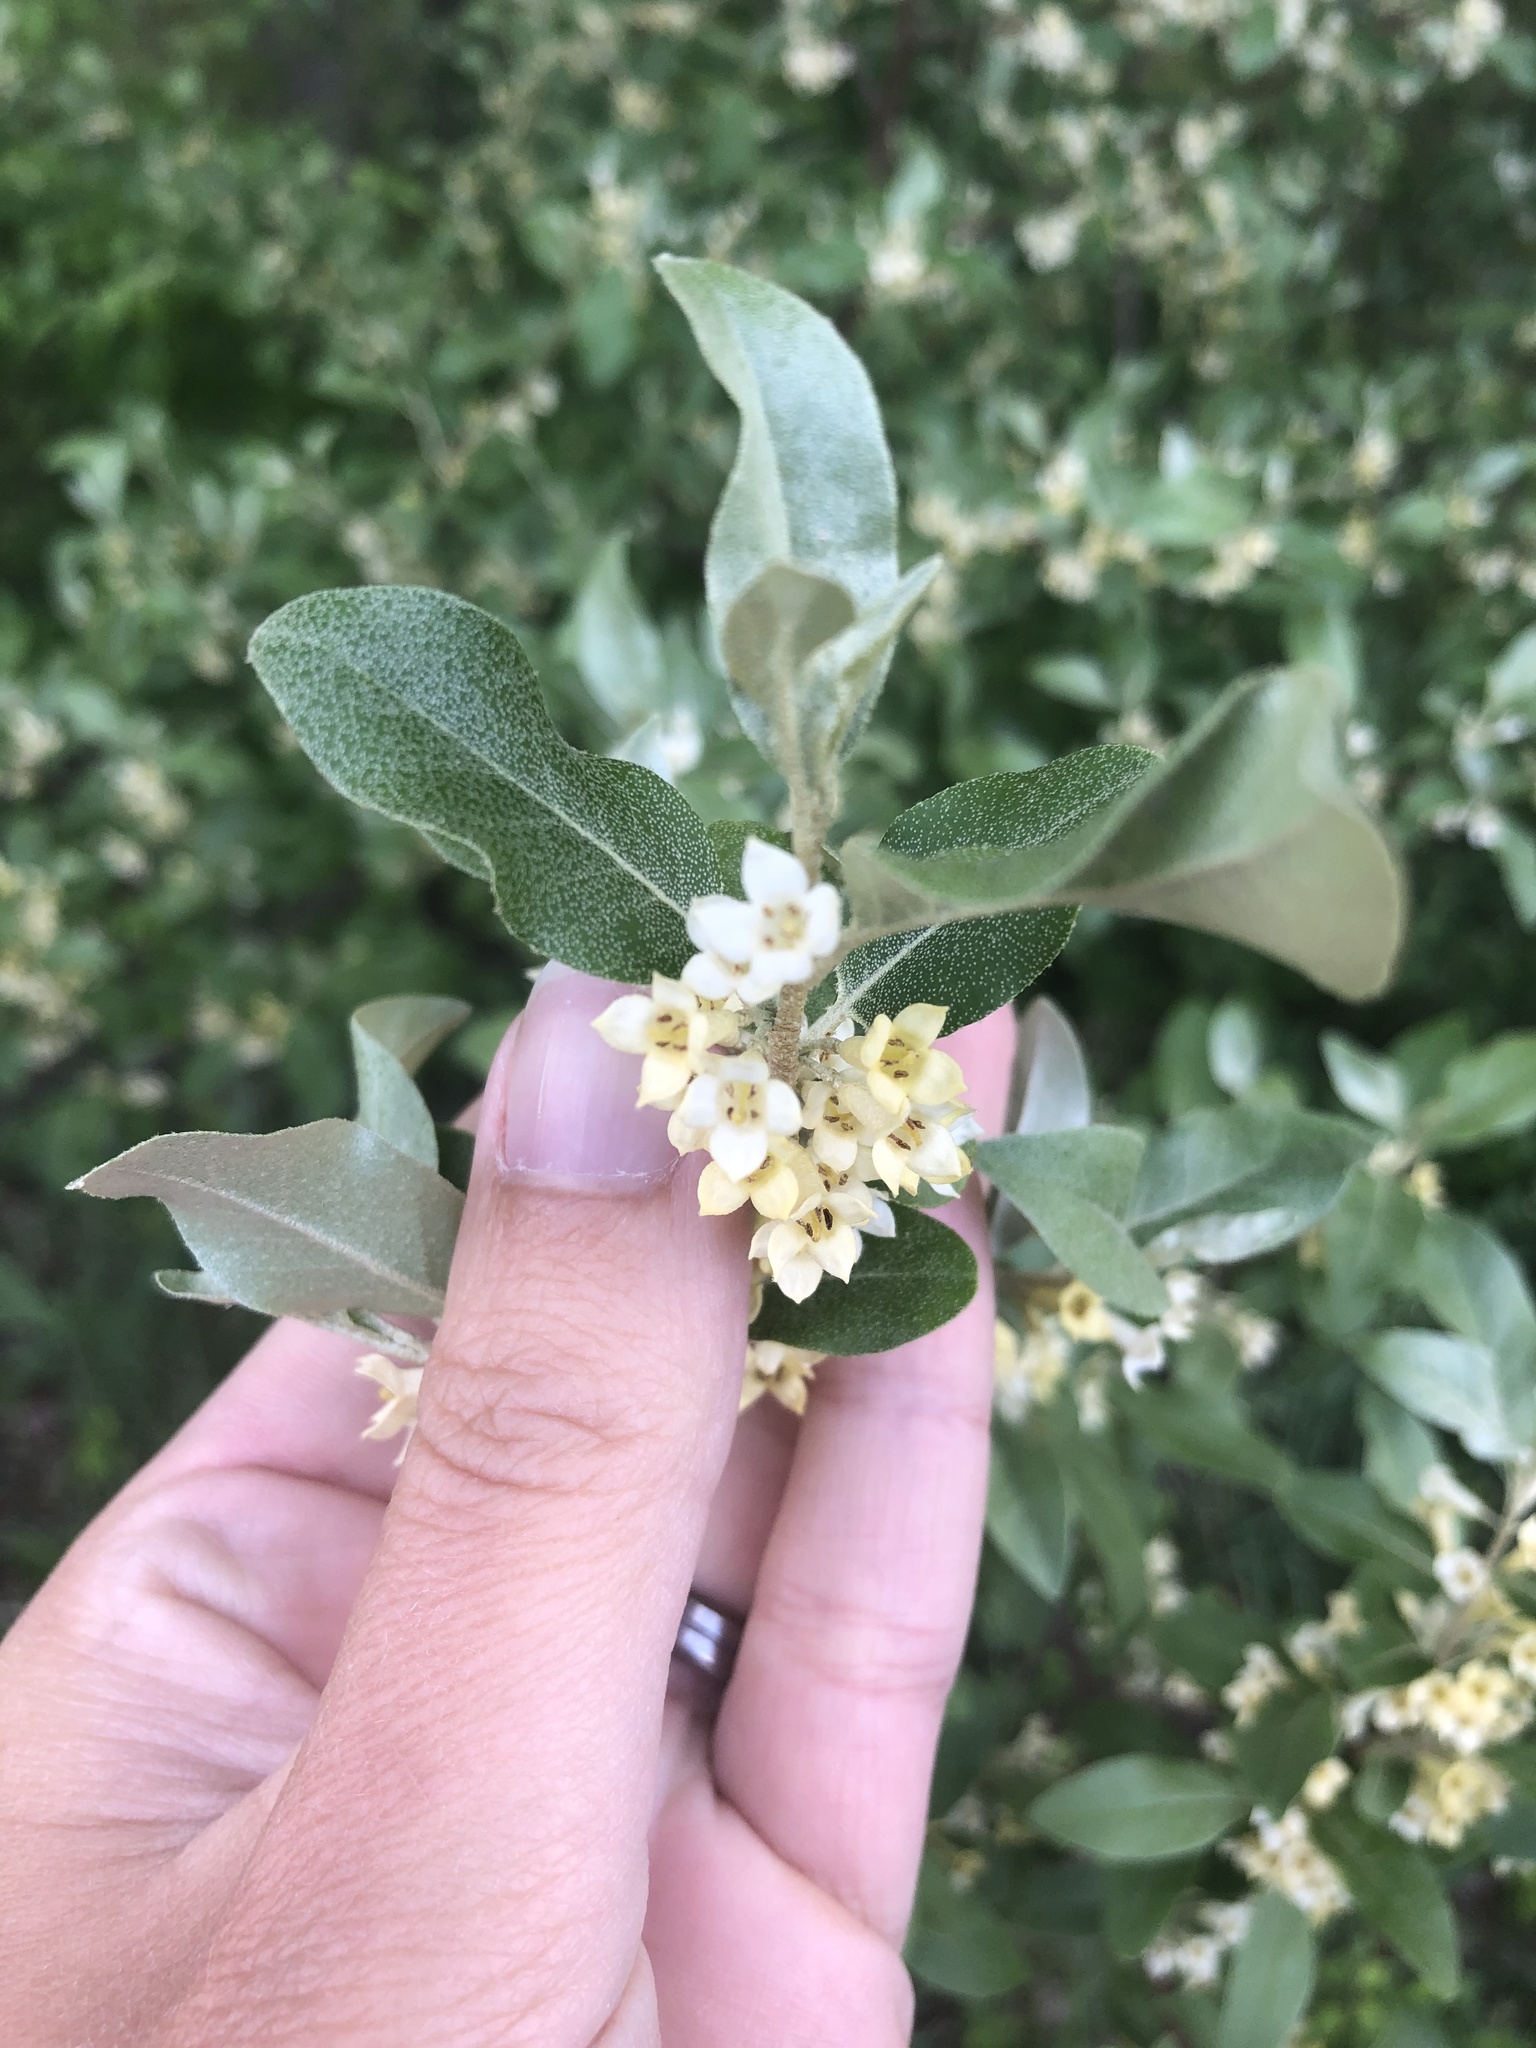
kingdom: Plantae
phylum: Tracheophyta
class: Magnoliopsida
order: Rosales
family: Elaeagnaceae
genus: Elaeagnus
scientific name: Elaeagnus umbellata
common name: Autumn olive
